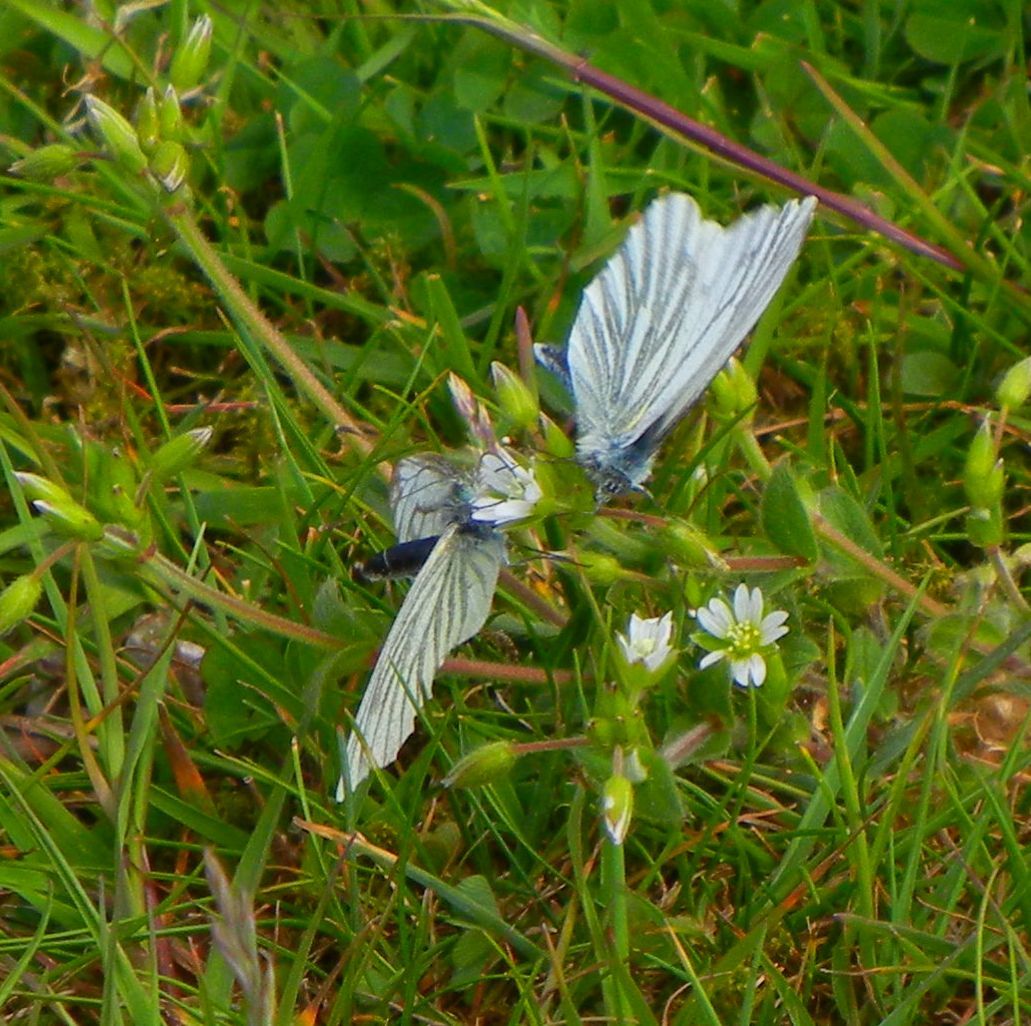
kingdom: Animalia
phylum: Arthropoda
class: Insecta
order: Lepidoptera
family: Pieridae
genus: Pieris
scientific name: Pieris napi
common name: Green-veined white
